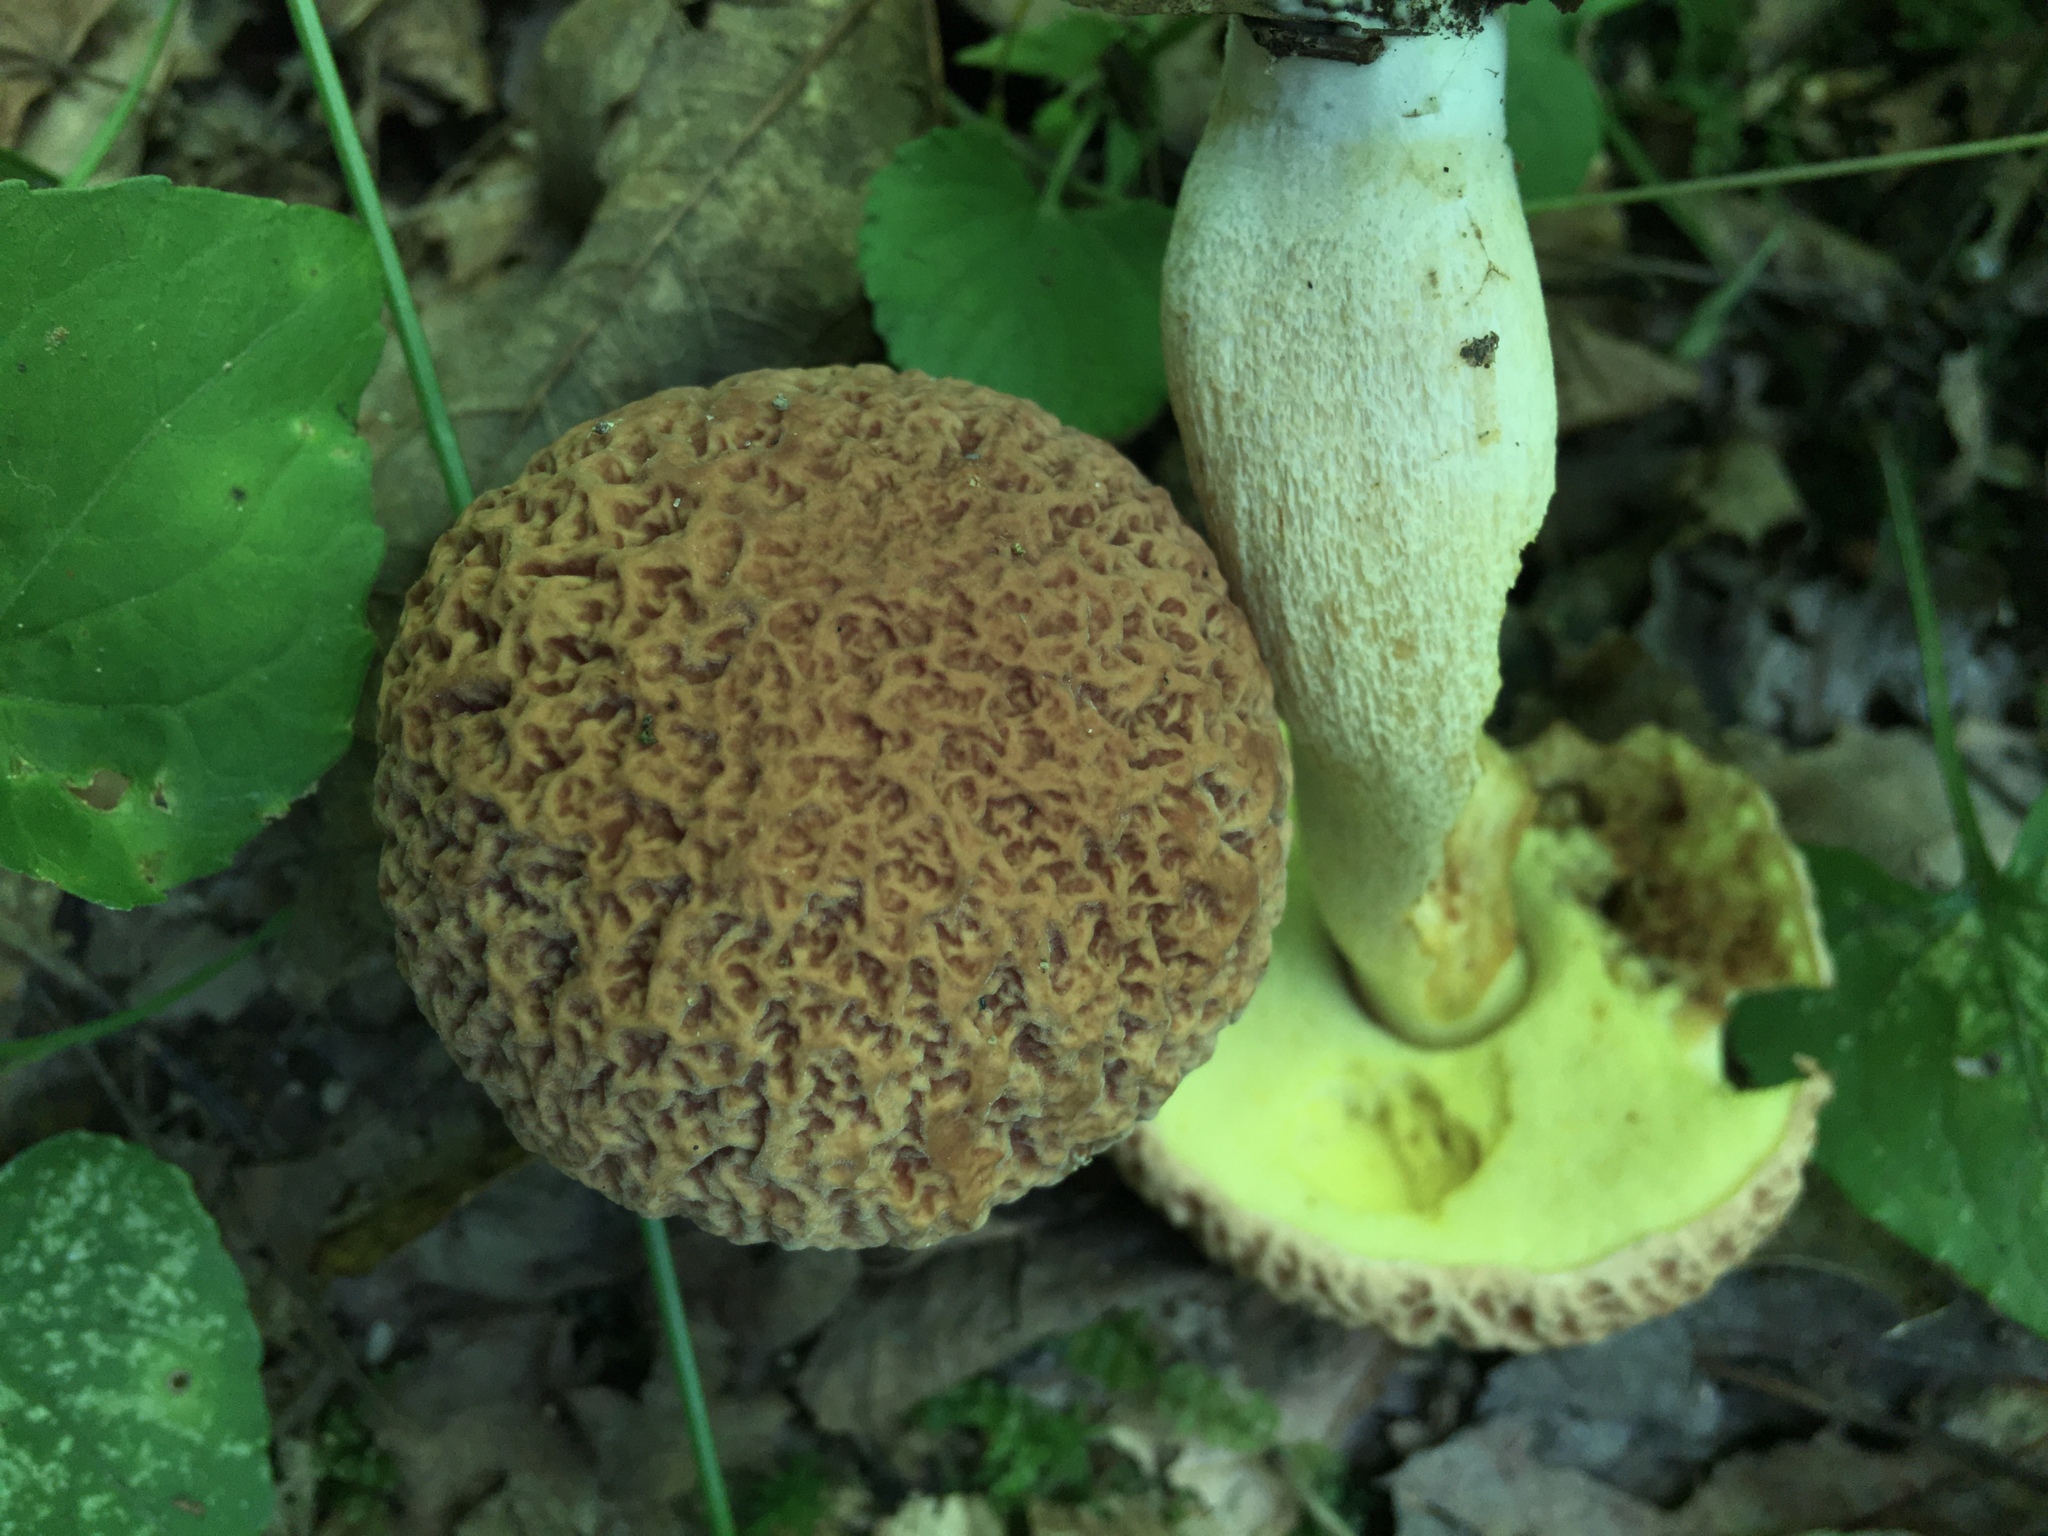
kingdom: Fungi
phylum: Basidiomycota
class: Agaricomycetes
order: Boletales
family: Boletaceae
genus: Hemileccinum
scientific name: Hemileccinum hortonii
